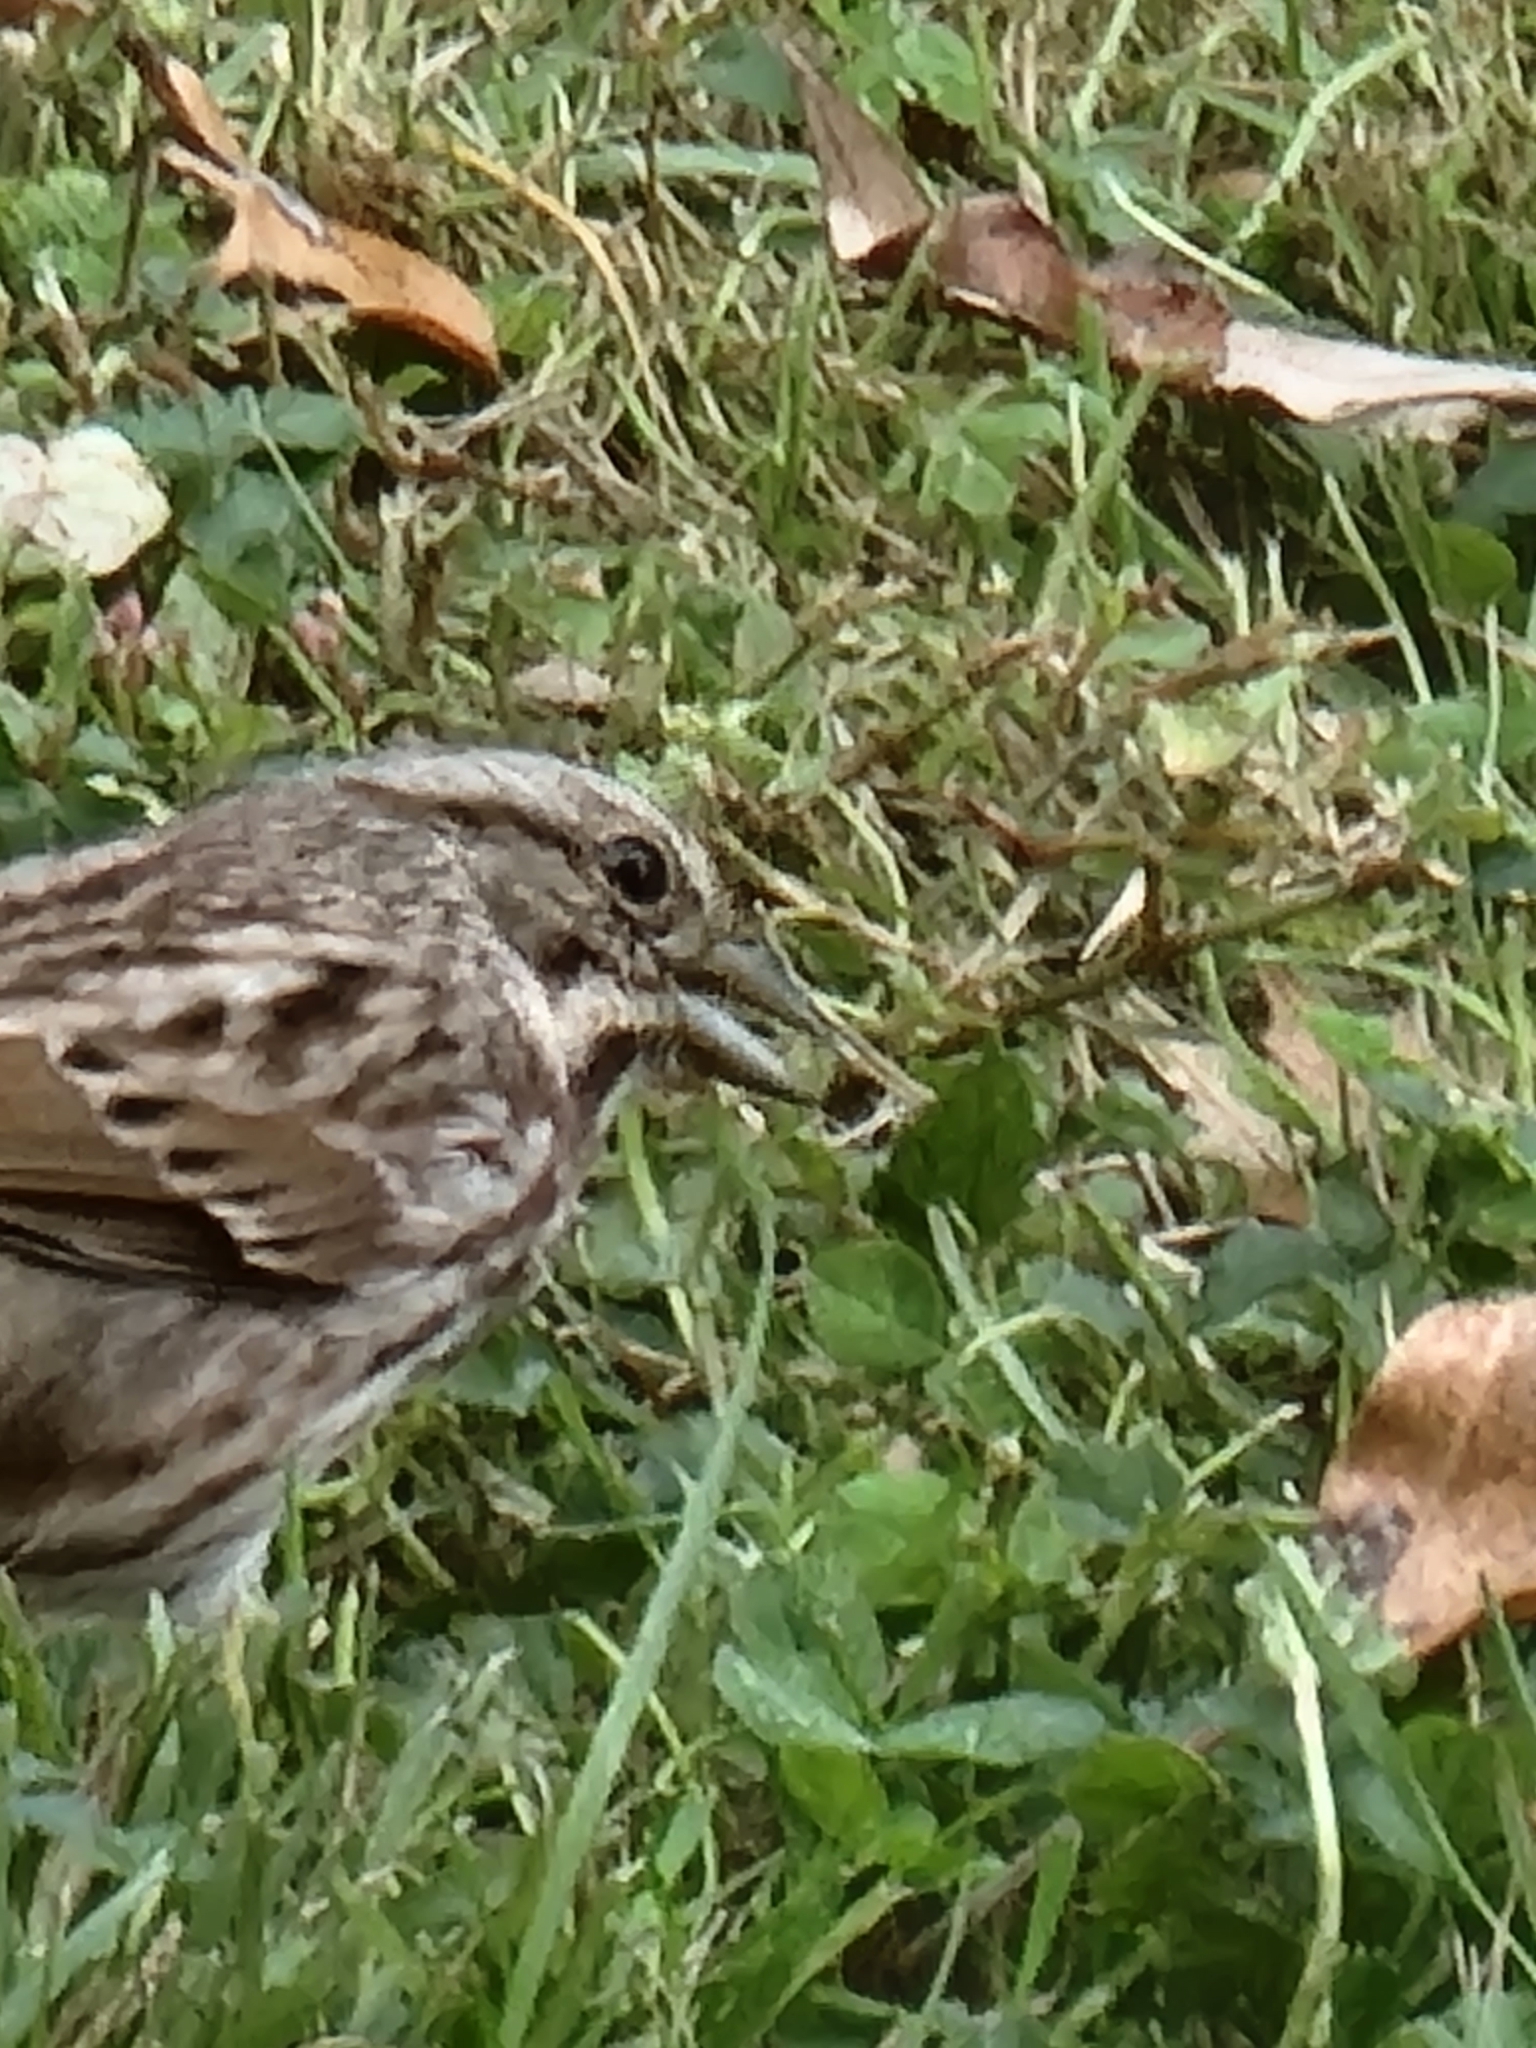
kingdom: Animalia
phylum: Chordata
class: Aves
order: Passeriformes
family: Passerellidae
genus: Melospiza
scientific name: Melospiza melodia
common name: Song sparrow
